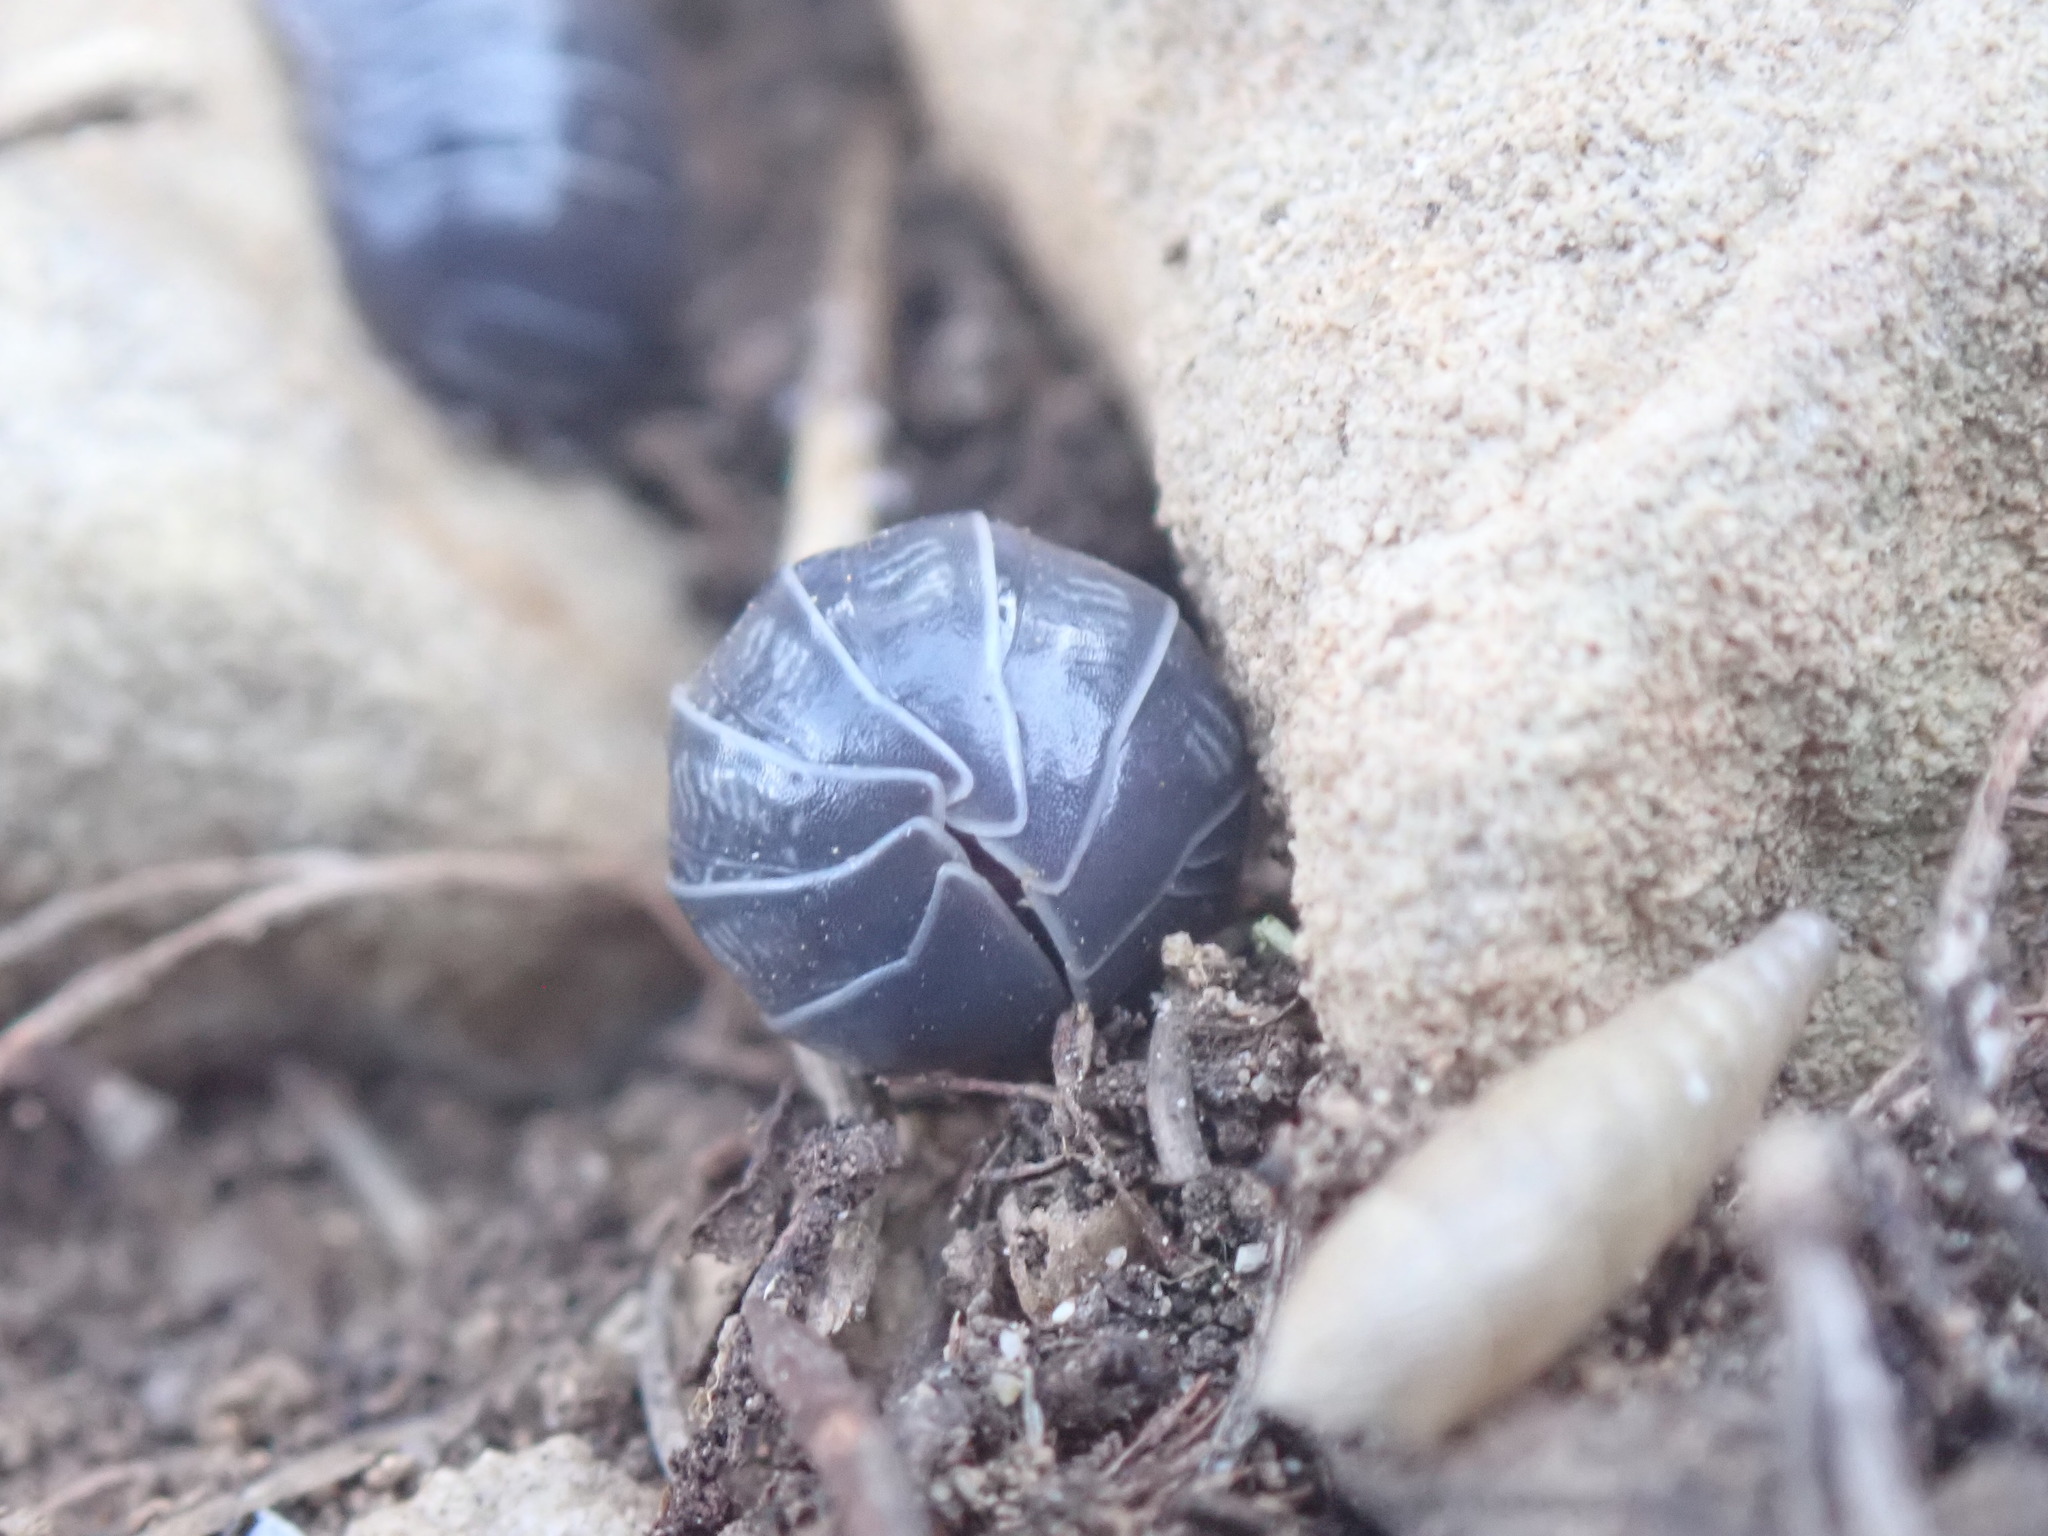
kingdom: Animalia
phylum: Arthropoda
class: Malacostraca
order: Isopoda
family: Armadillidiidae
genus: Armadillidium
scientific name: Armadillidium stagnoense
